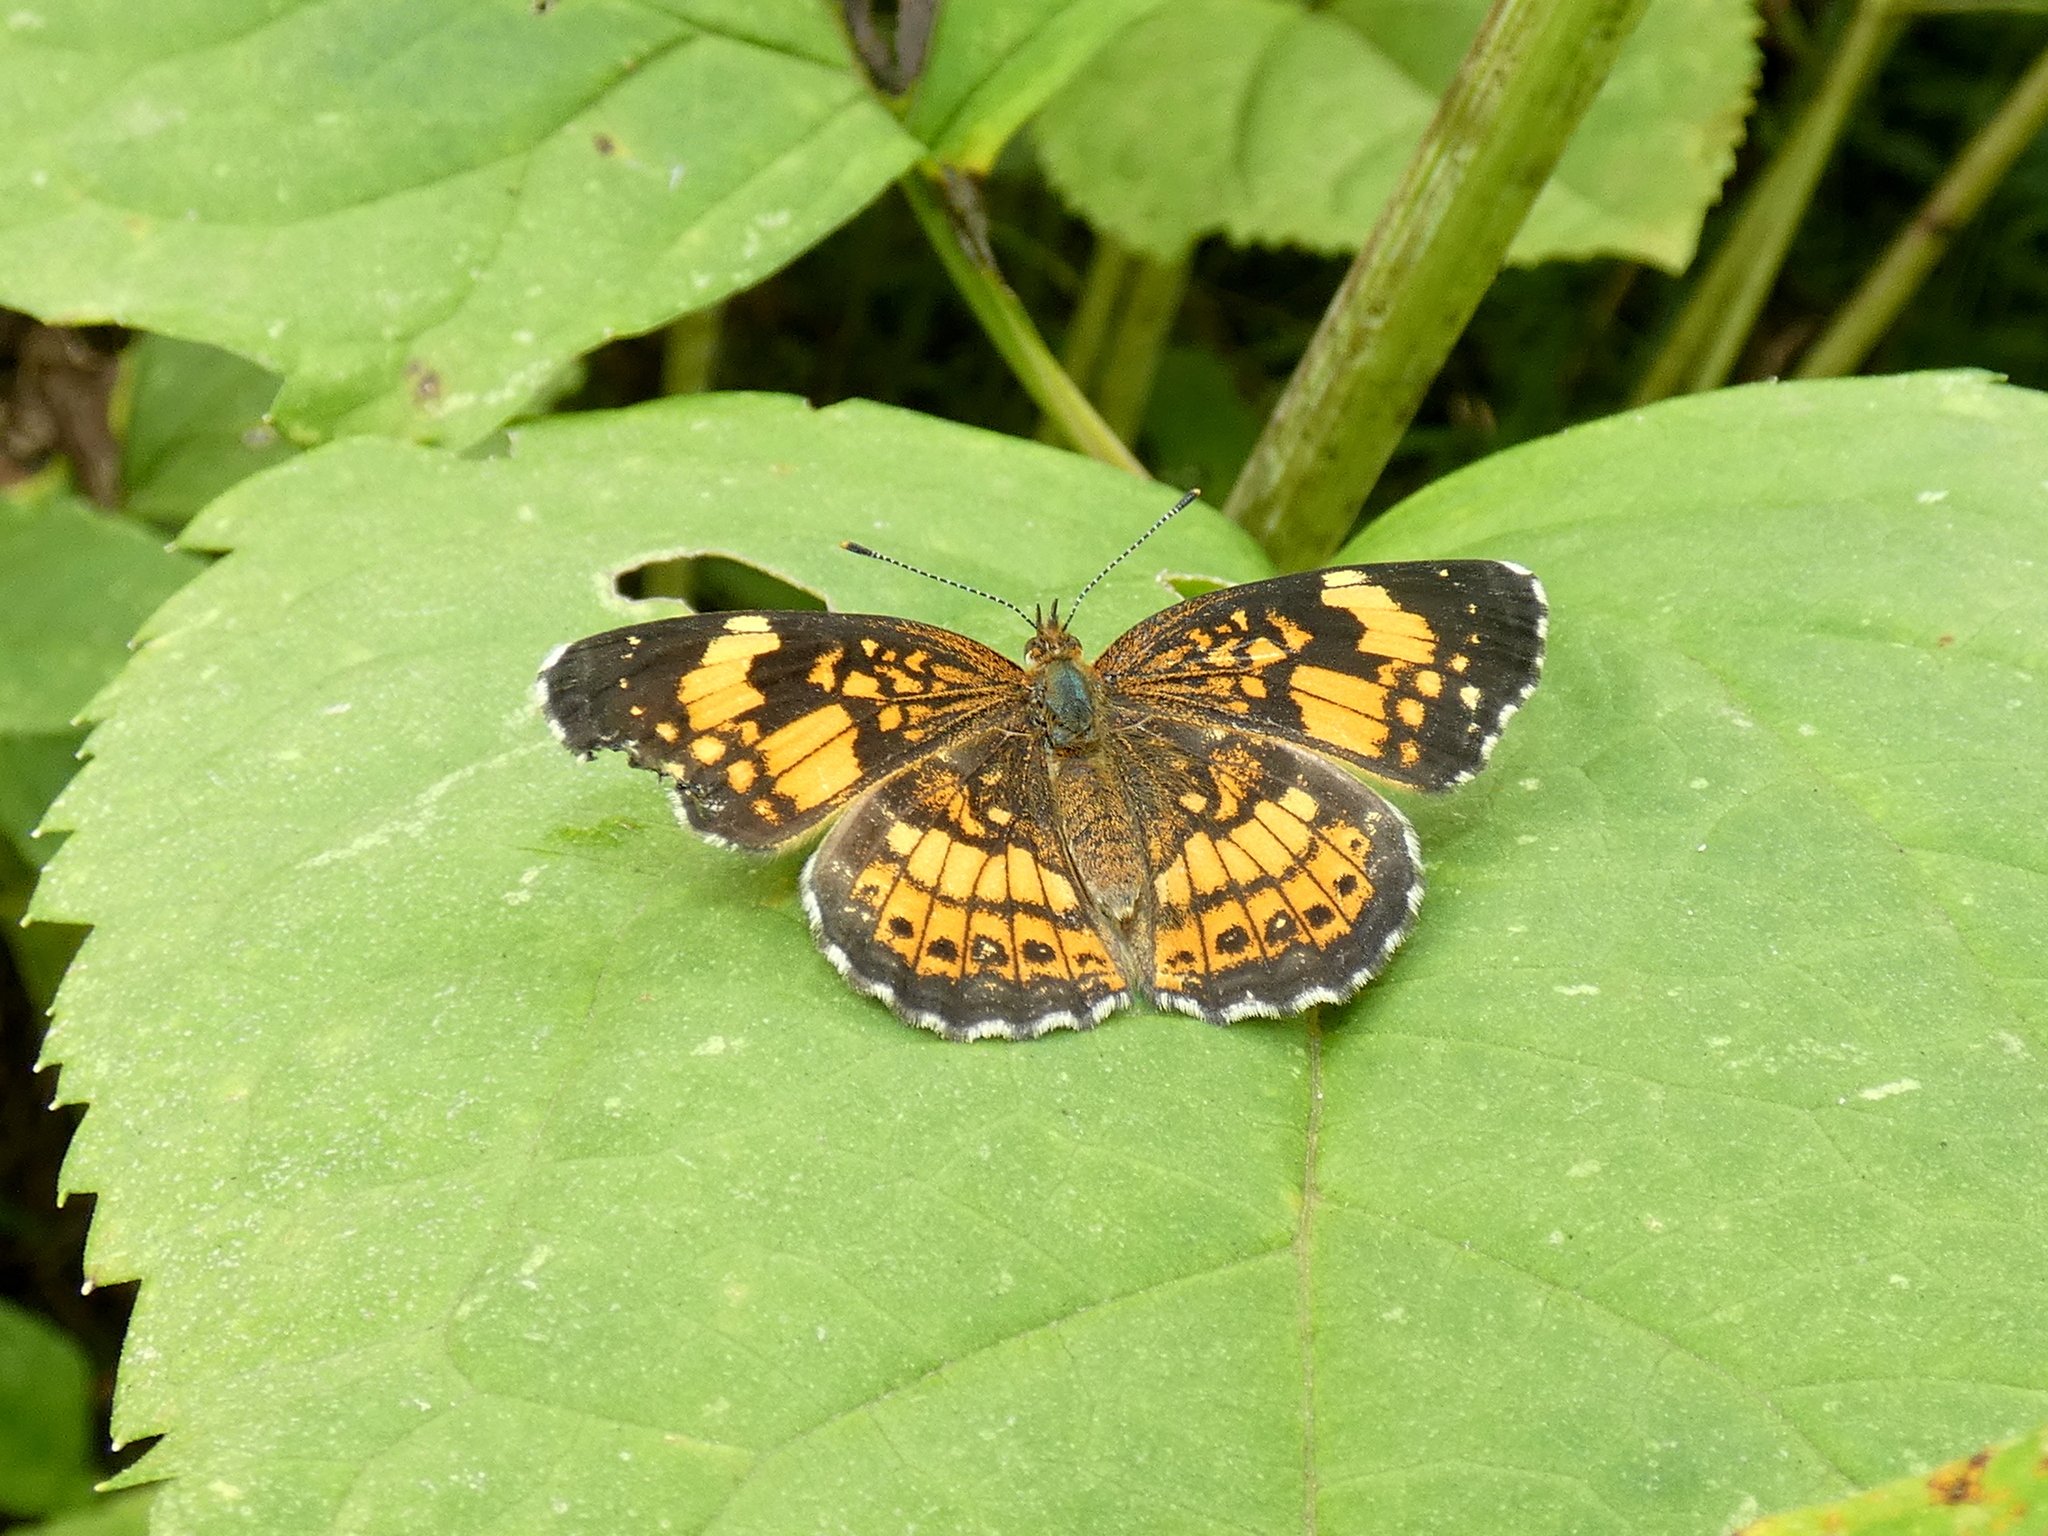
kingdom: Animalia
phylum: Arthropoda
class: Insecta
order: Lepidoptera
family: Nymphalidae
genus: Chlosyne
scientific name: Chlosyne nycteis
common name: Silvery checkerspot
